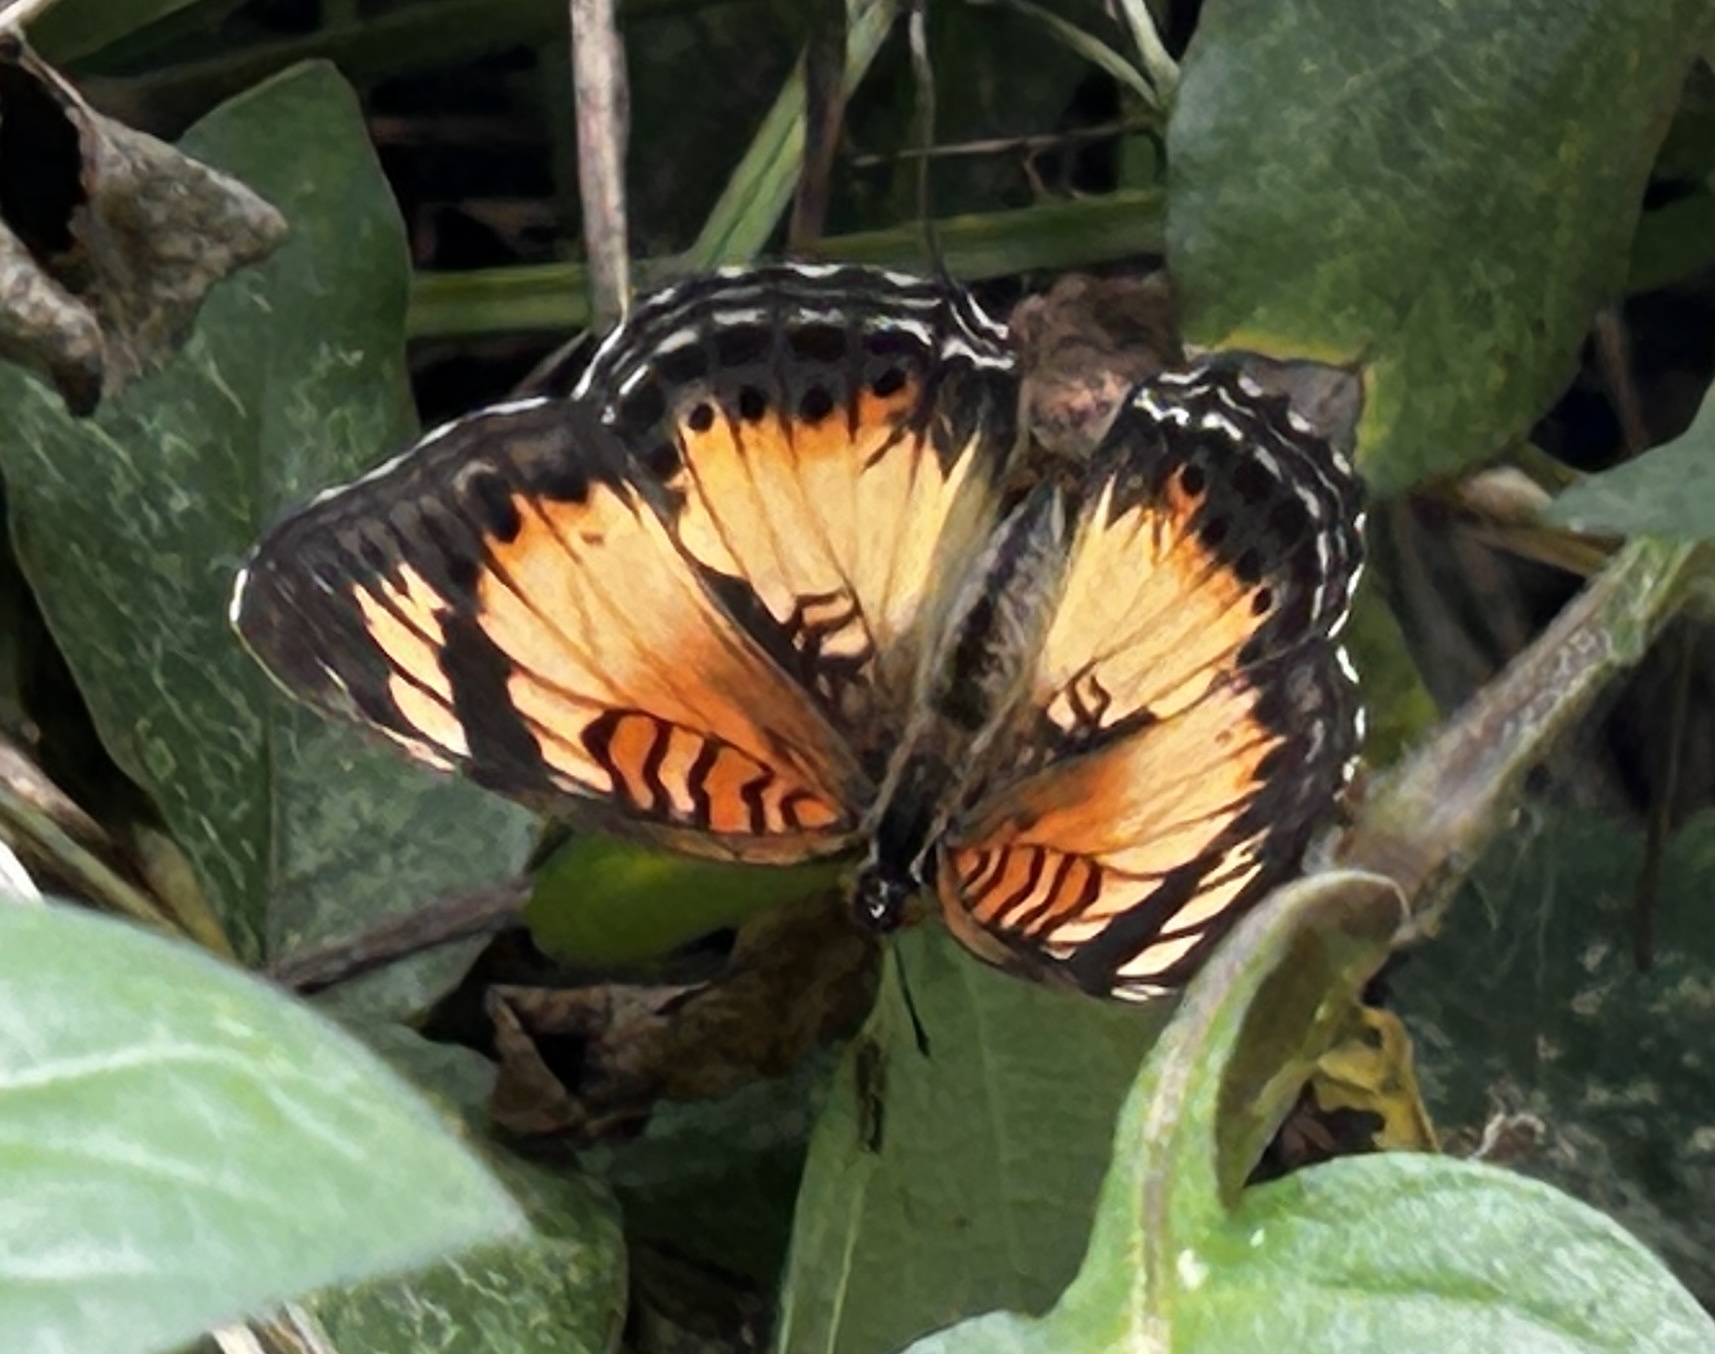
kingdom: Animalia
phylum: Arthropoda
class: Insecta
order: Lepidoptera
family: Nymphalidae
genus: Junonia
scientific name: Junonia sophia
